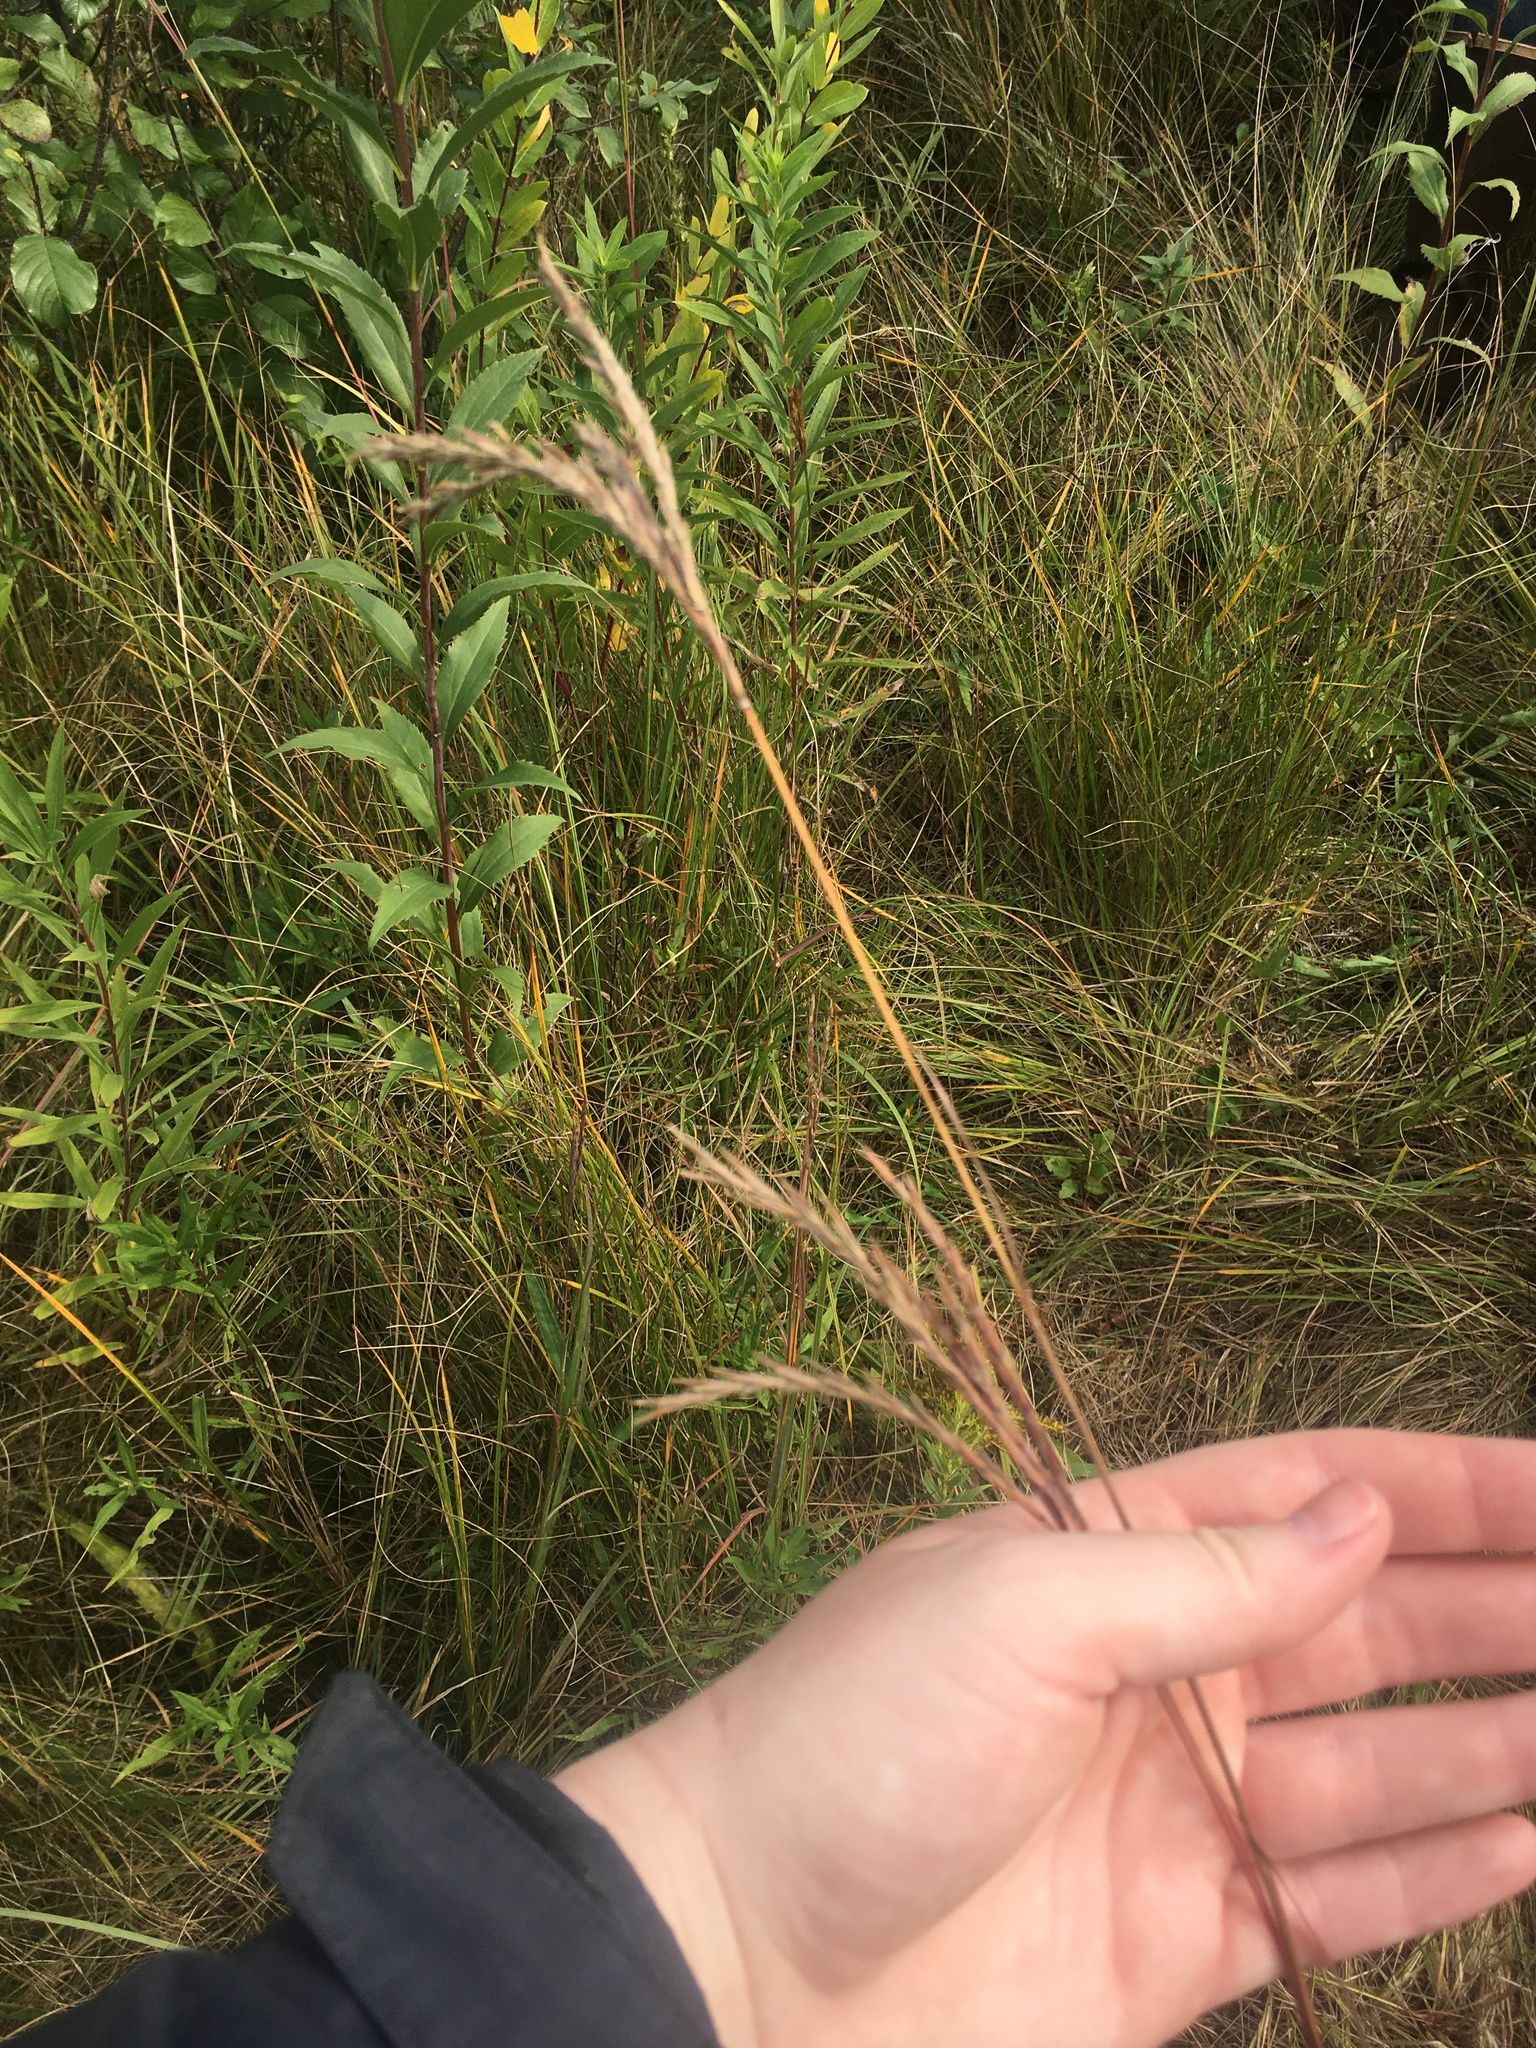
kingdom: Plantae
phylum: Tracheophyta
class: Liliopsida
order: Poales
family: Poaceae
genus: Andropogon
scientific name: Andropogon gerardi
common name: Big bluestem
